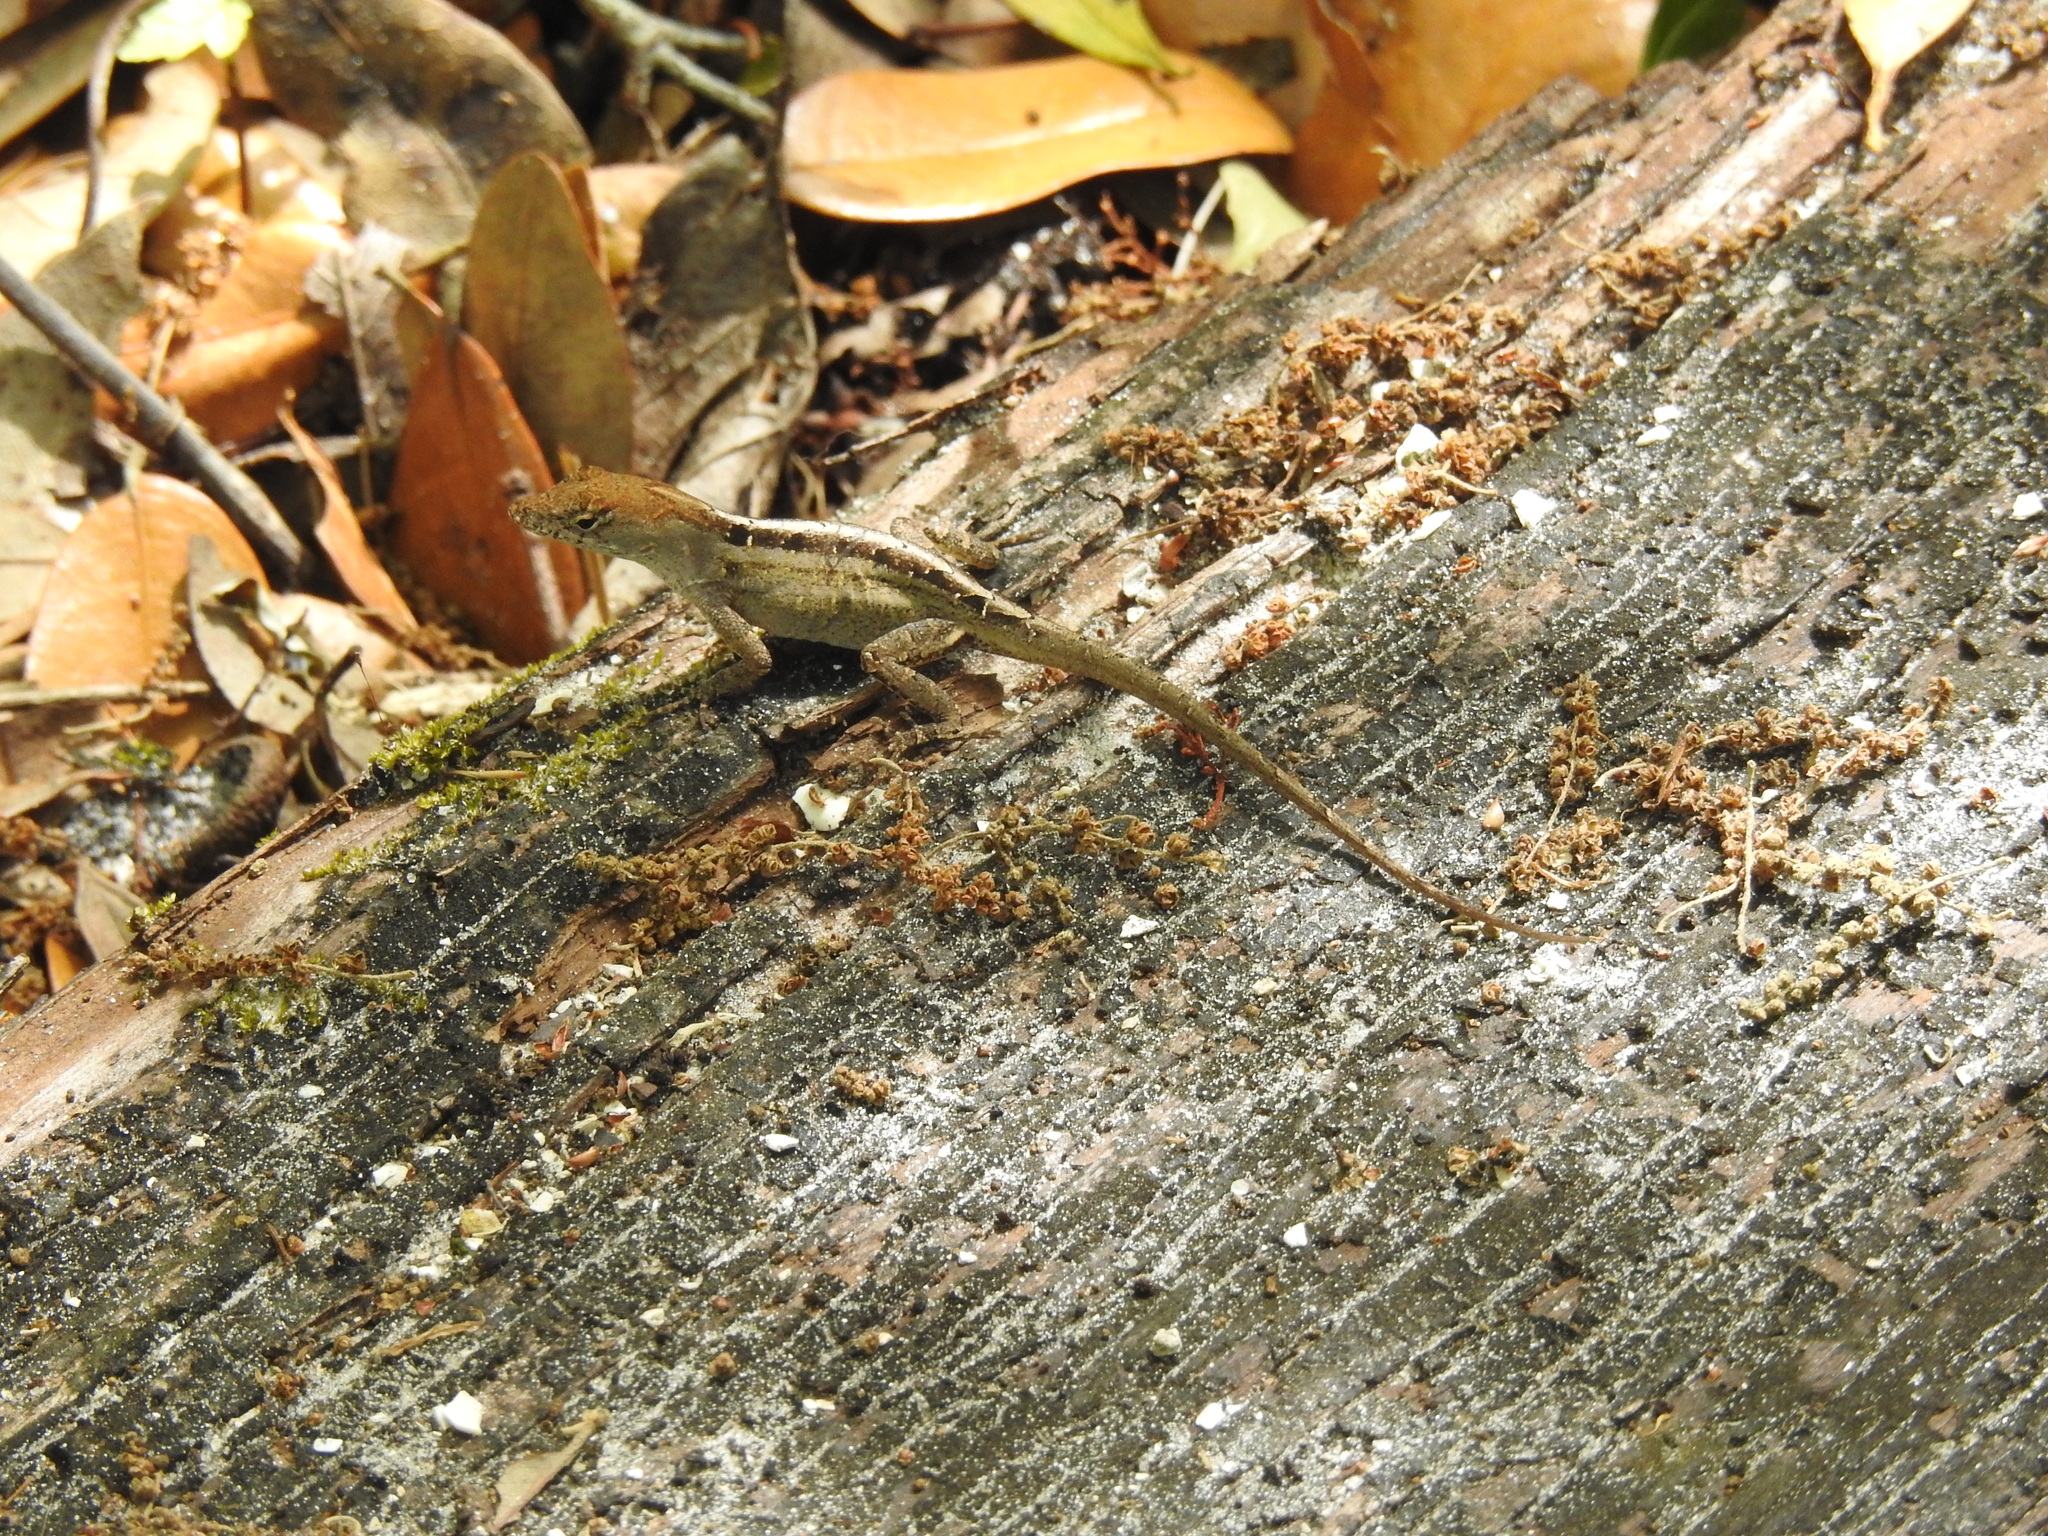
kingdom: Animalia
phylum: Chordata
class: Squamata
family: Dactyloidae
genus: Anolis
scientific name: Anolis sagrei
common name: Brown anole
